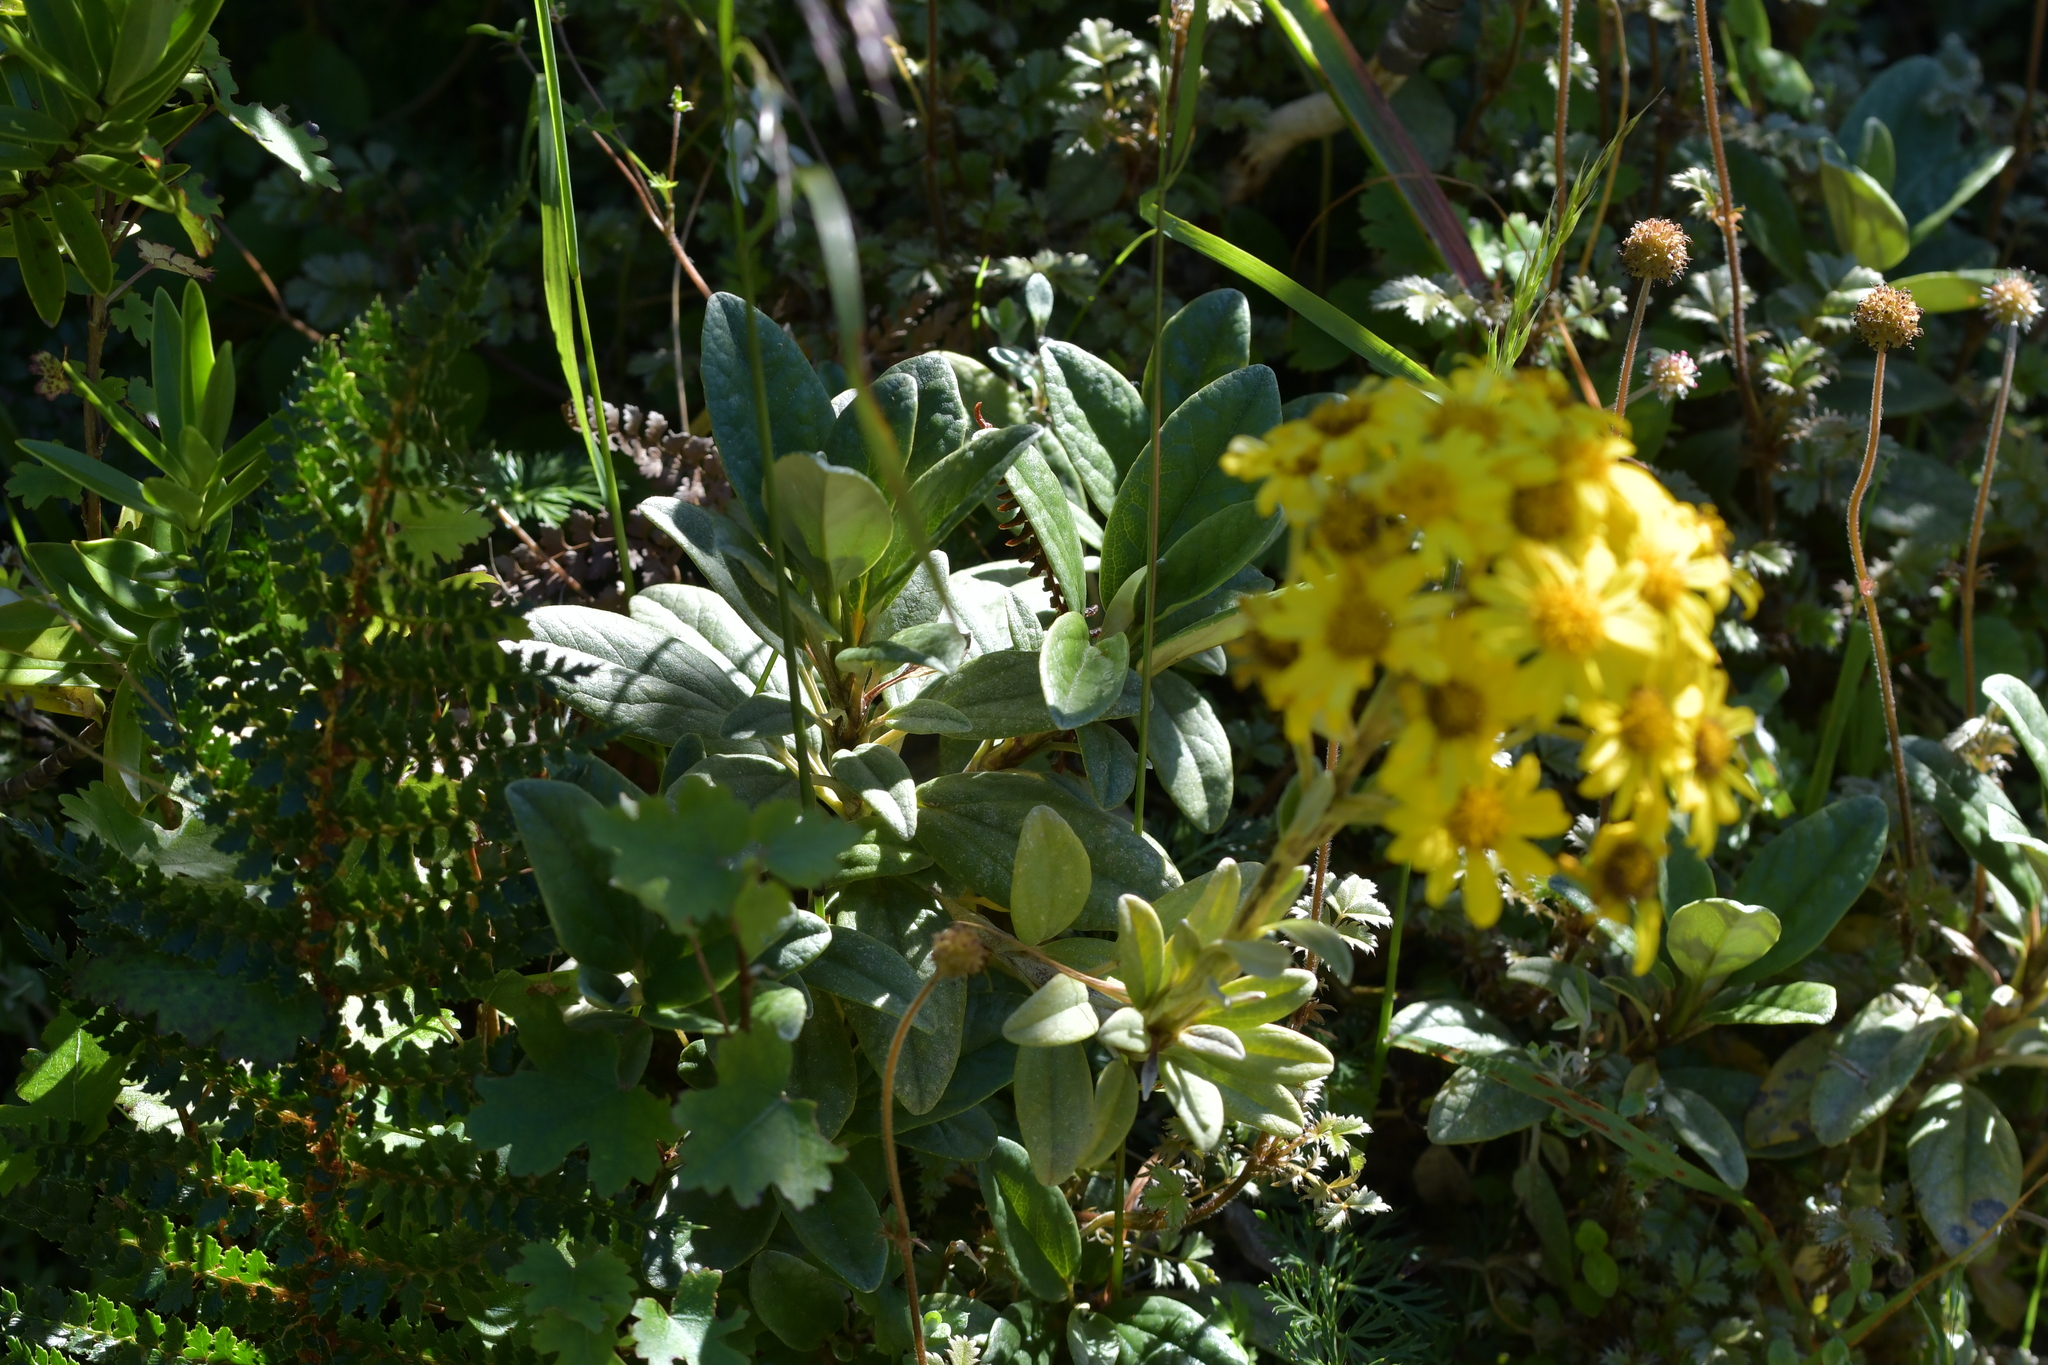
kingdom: Plantae
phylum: Tracheophyta
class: Magnoliopsida
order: Asterales
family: Asteraceae
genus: Brachyglottis
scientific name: Brachyglottis revoluta
